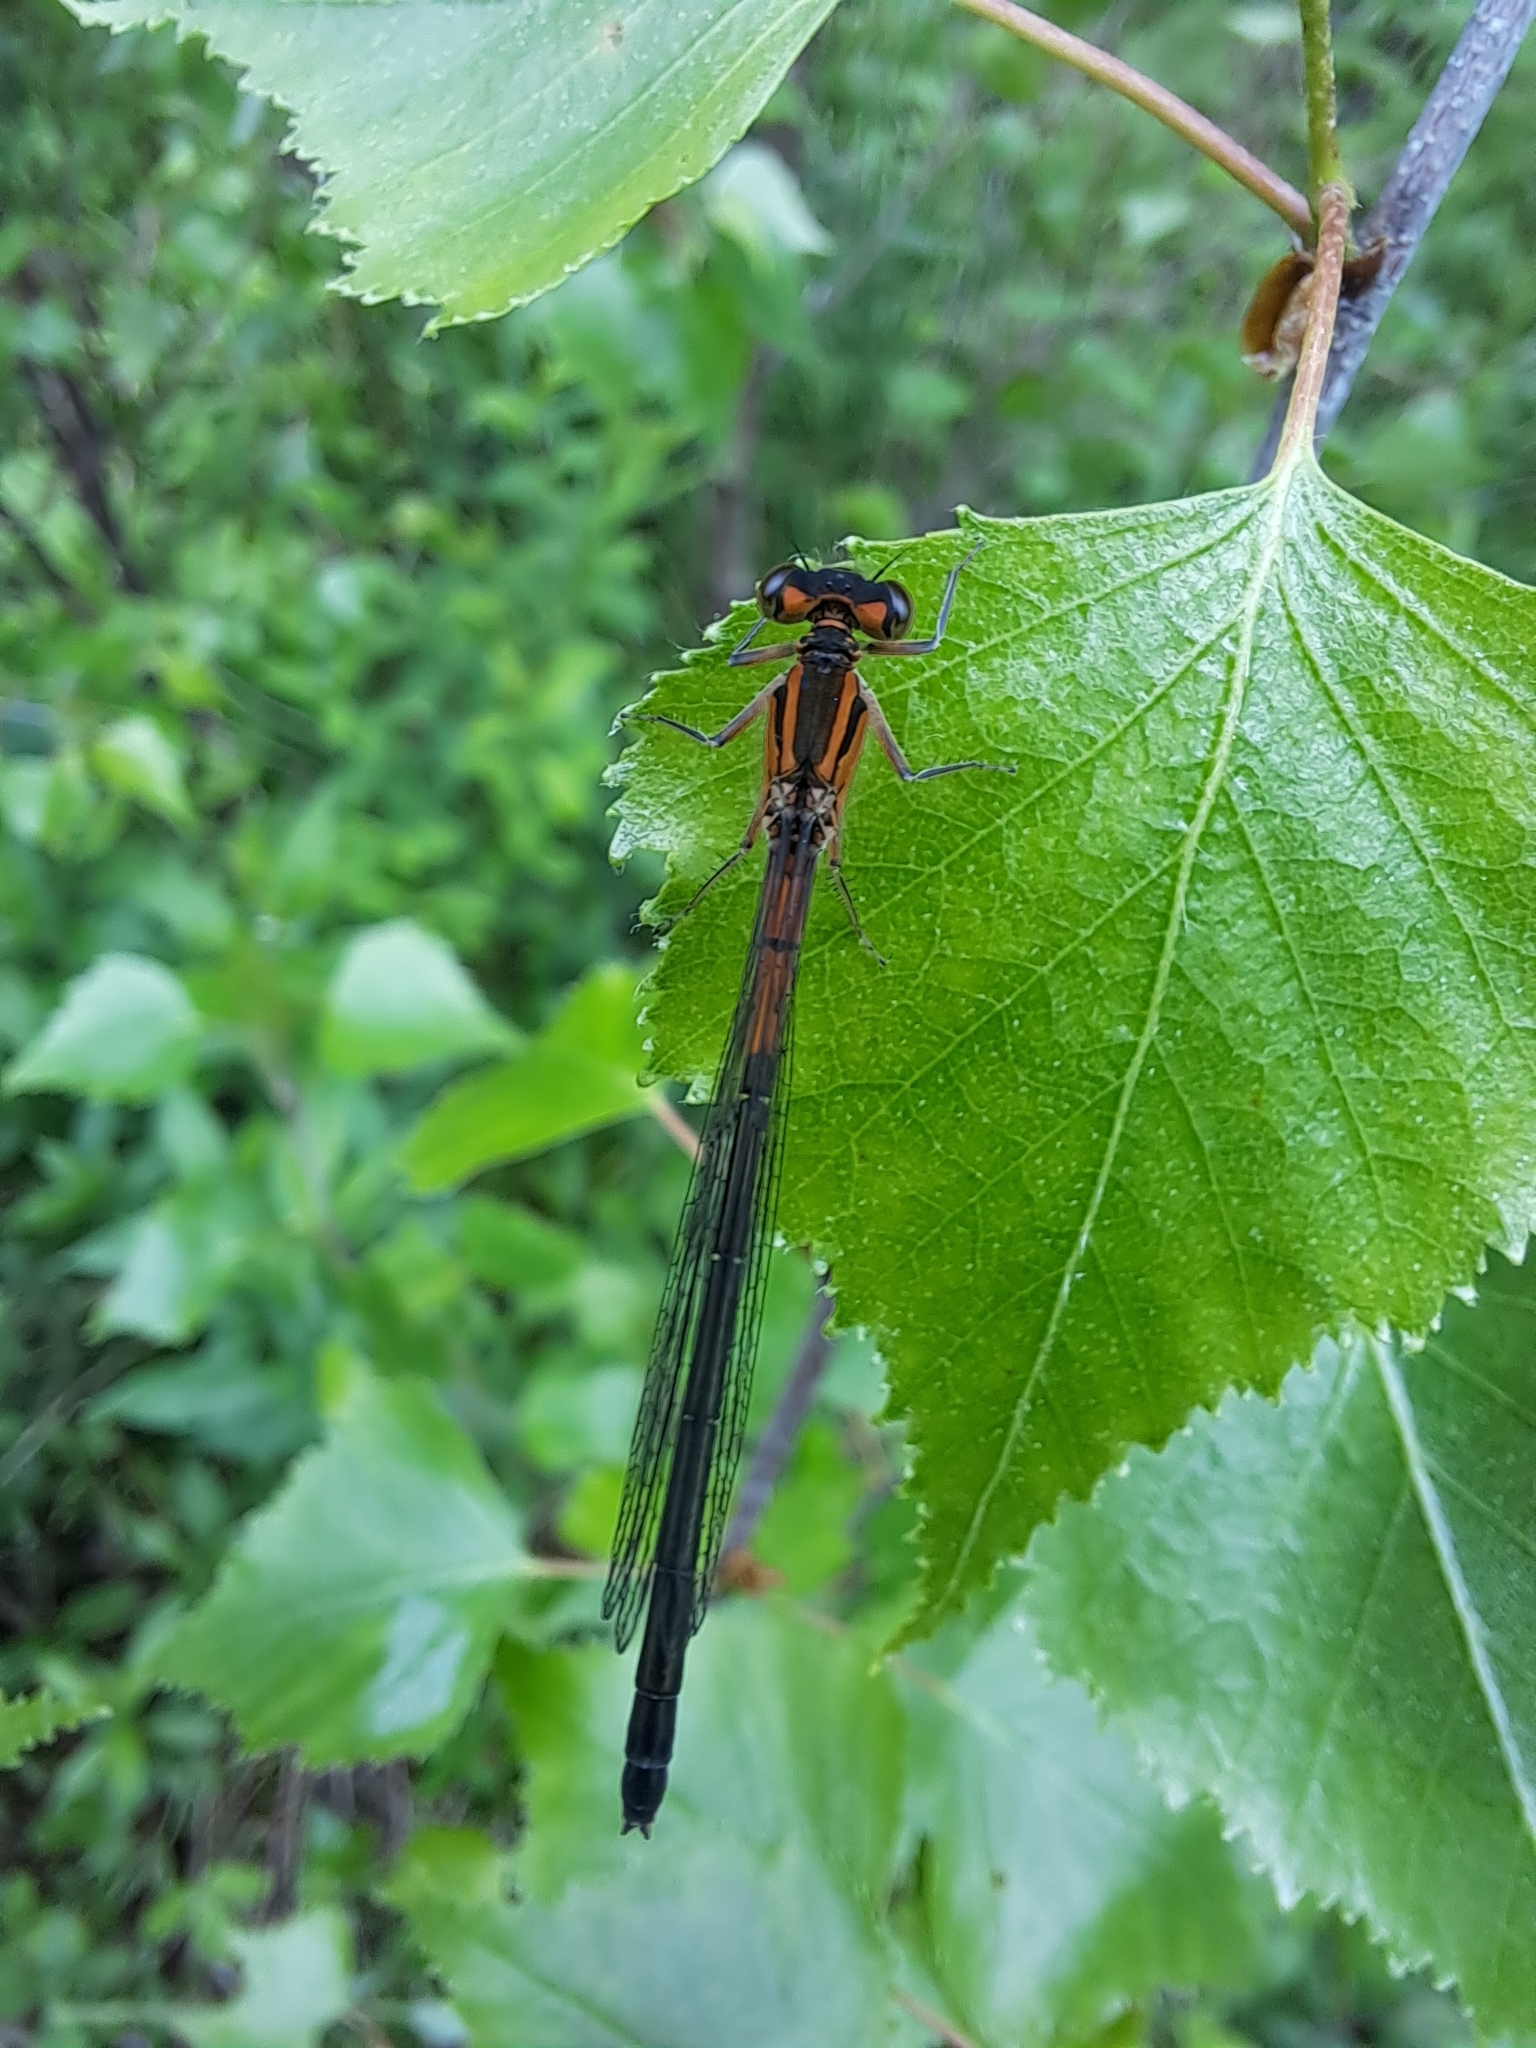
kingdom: Animalia
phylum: Arthropoda
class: Insecta
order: Odonata
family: Coenagrionidae
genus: Ischnura
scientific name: Ischnura verticalis
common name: Eastern forktail
